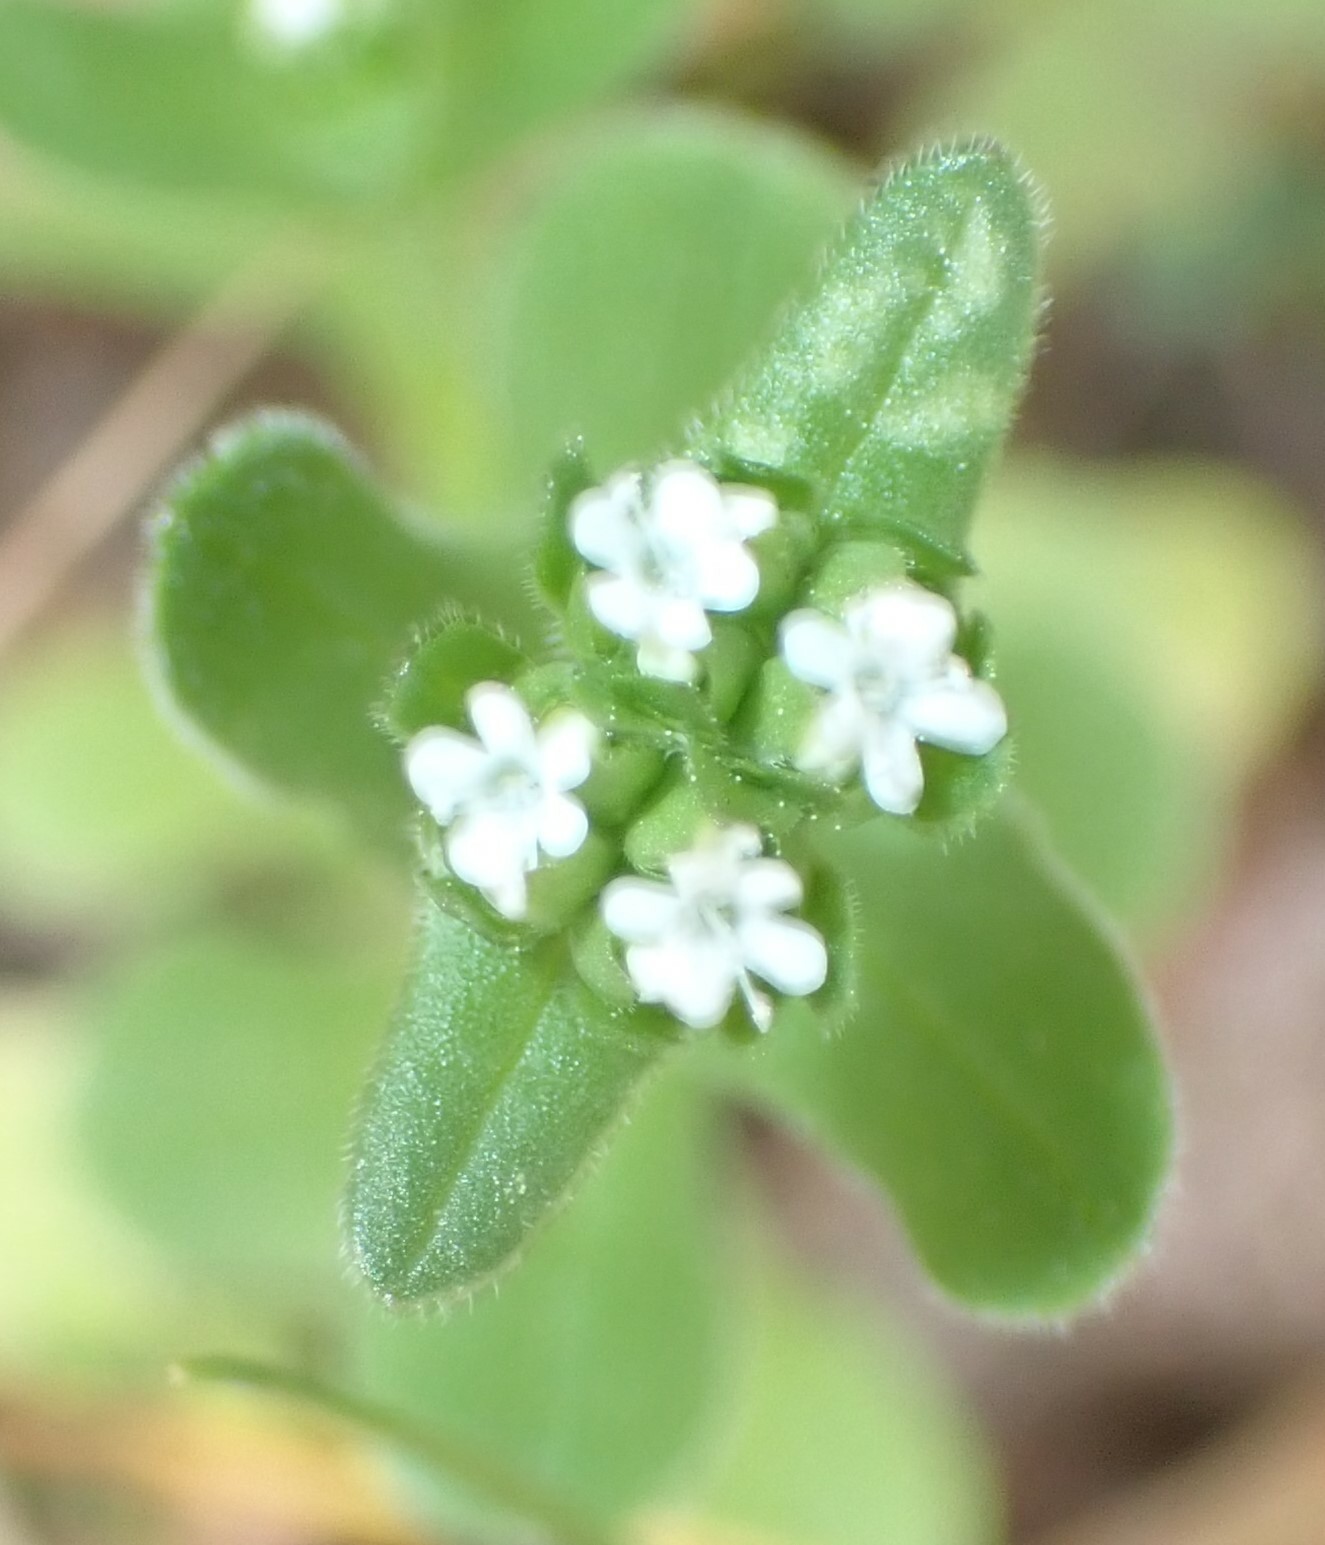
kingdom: Plantae
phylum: Tracheophyta
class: Magnoliopsida
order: Dipsacales
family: Caprifoliaceae
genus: Valerianella
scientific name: Valerianella radiata
